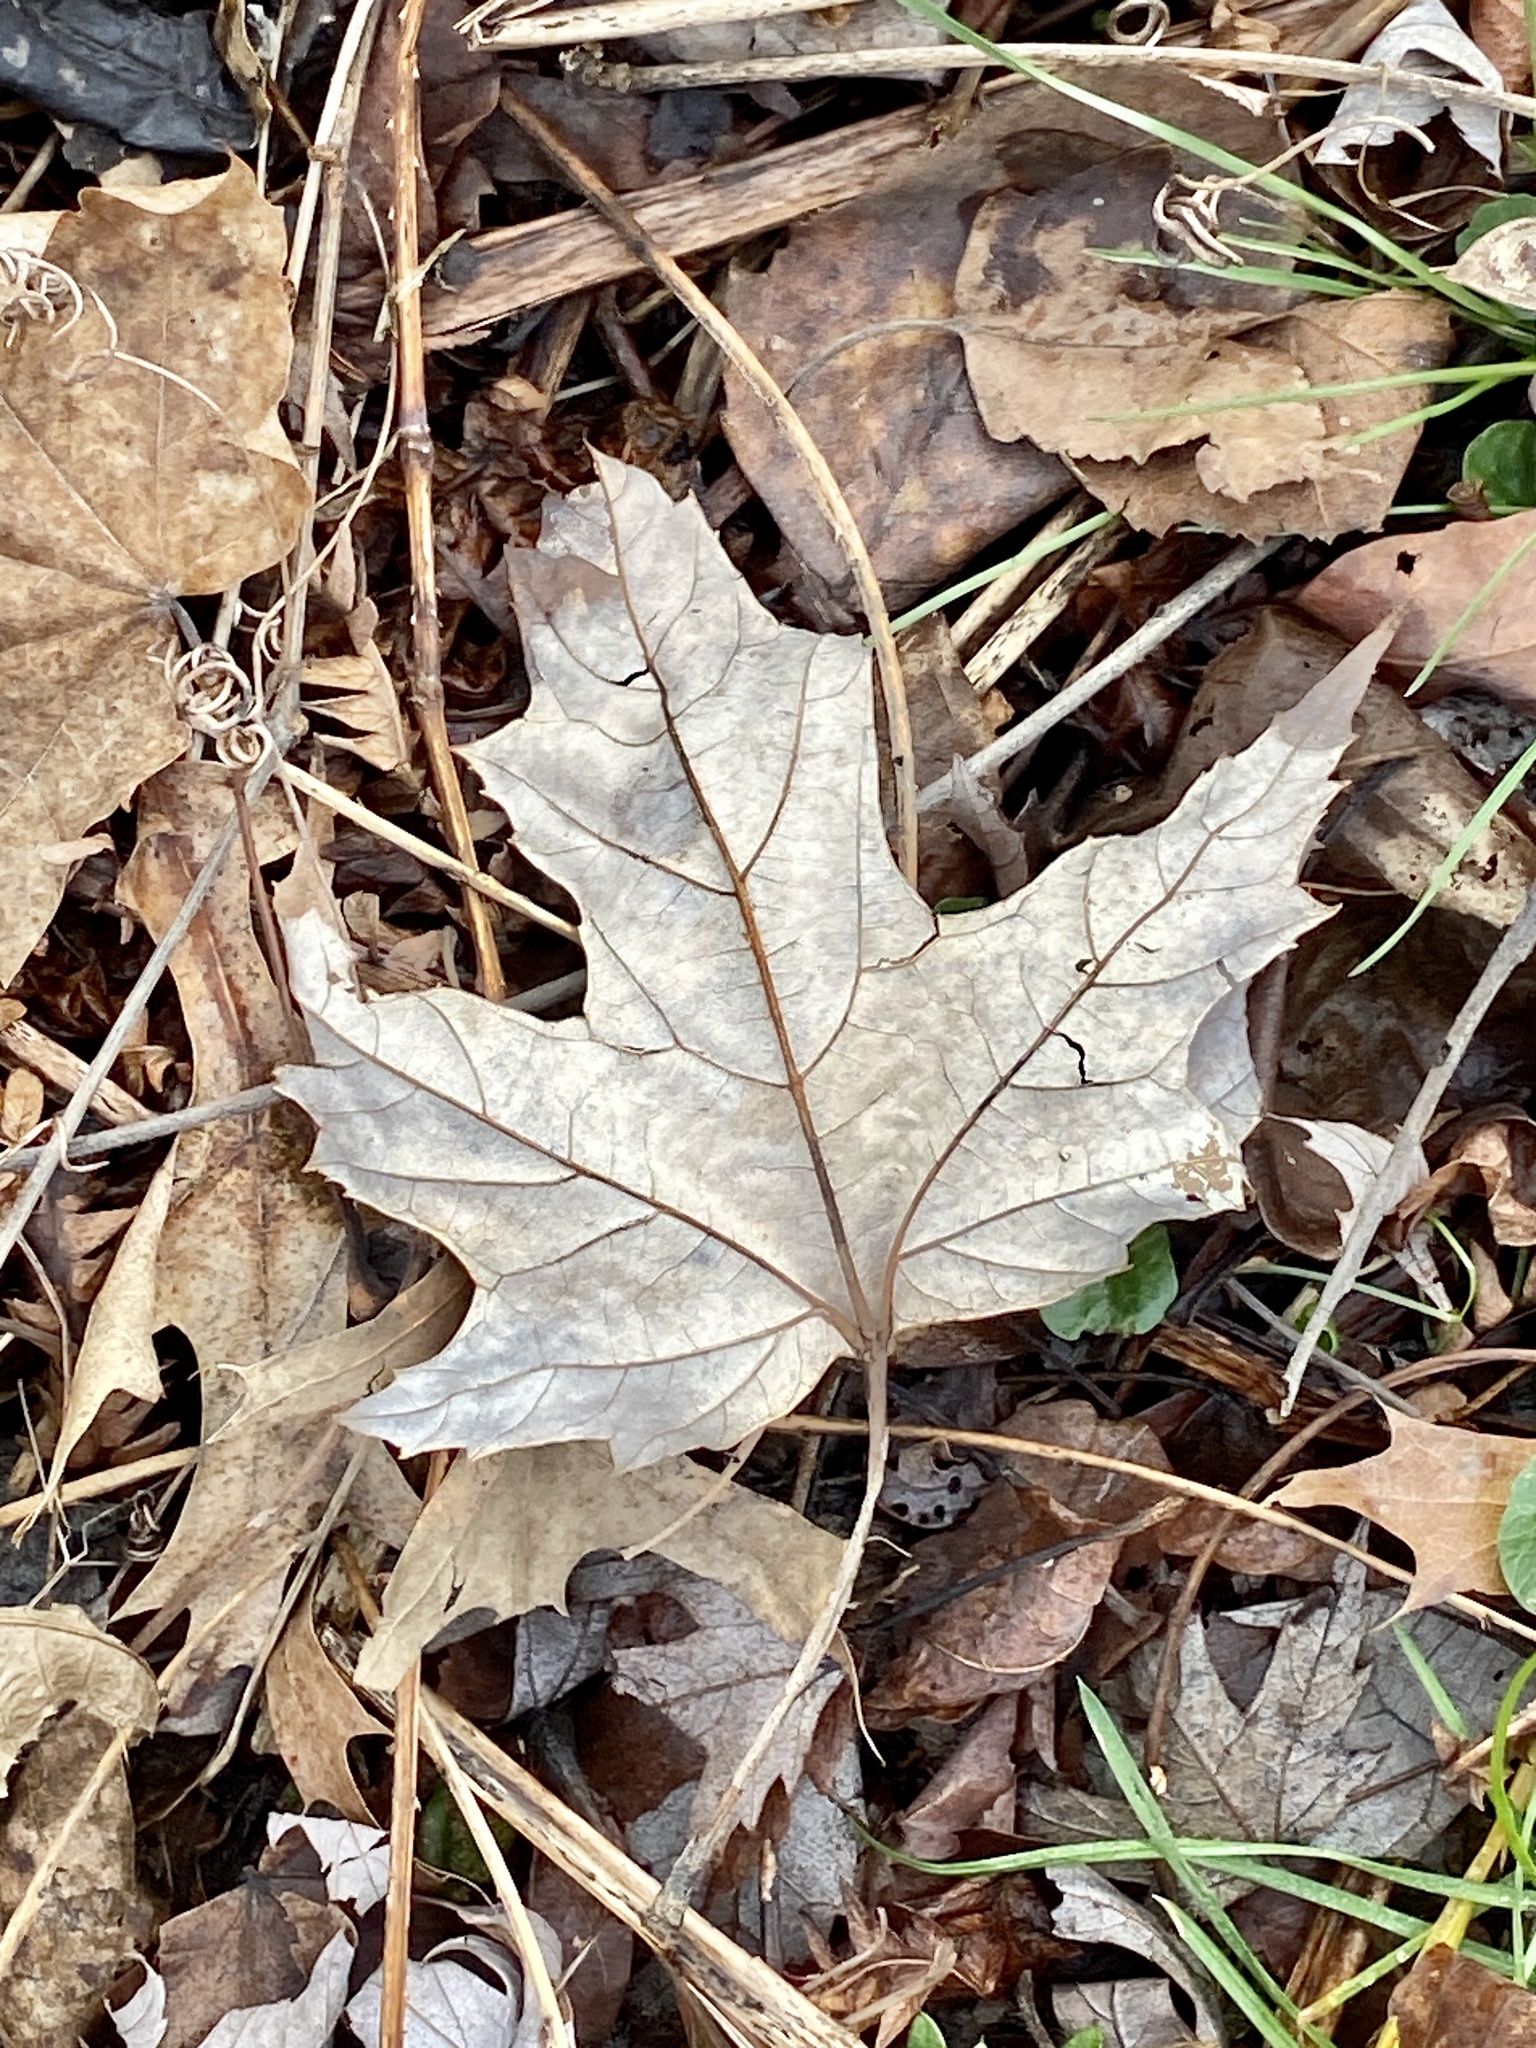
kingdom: Plantae
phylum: Tracheophyta
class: Magnoliopsida
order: Sapindales
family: Sapindaceae
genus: Acer
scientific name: Acer saccharinum
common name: Silver maple
